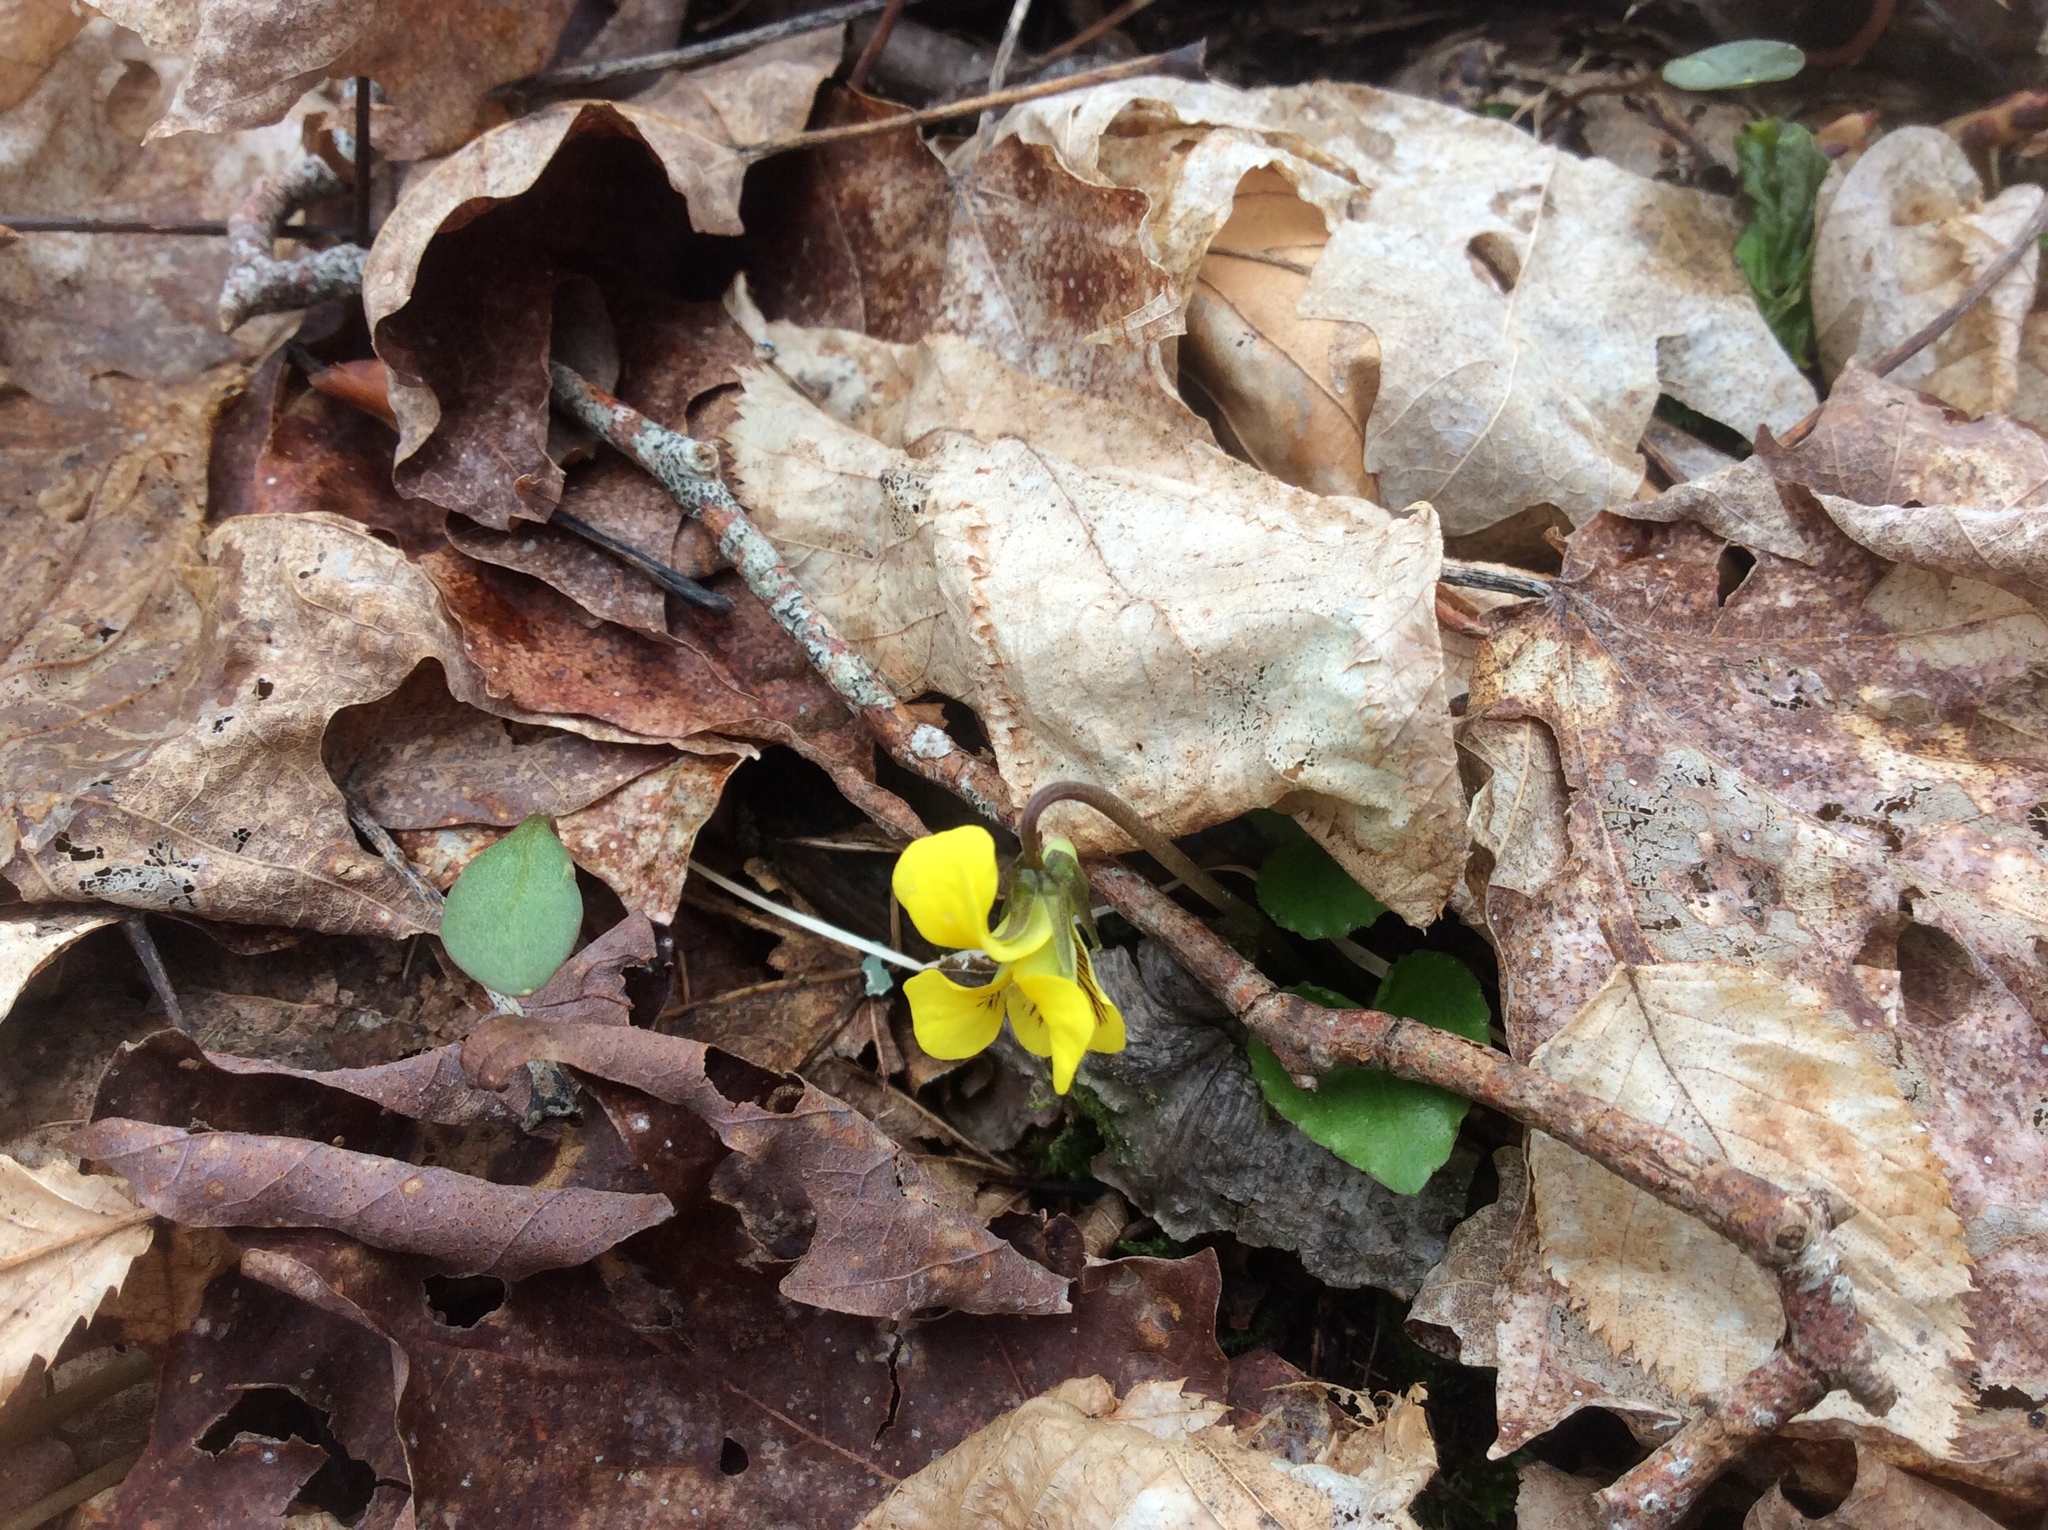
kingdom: Plantae
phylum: Tracheophyta
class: Magnoliopsida
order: Malpighiales
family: Violaceae
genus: Viola
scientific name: Viola rotundifolia
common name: Early yellow violet
